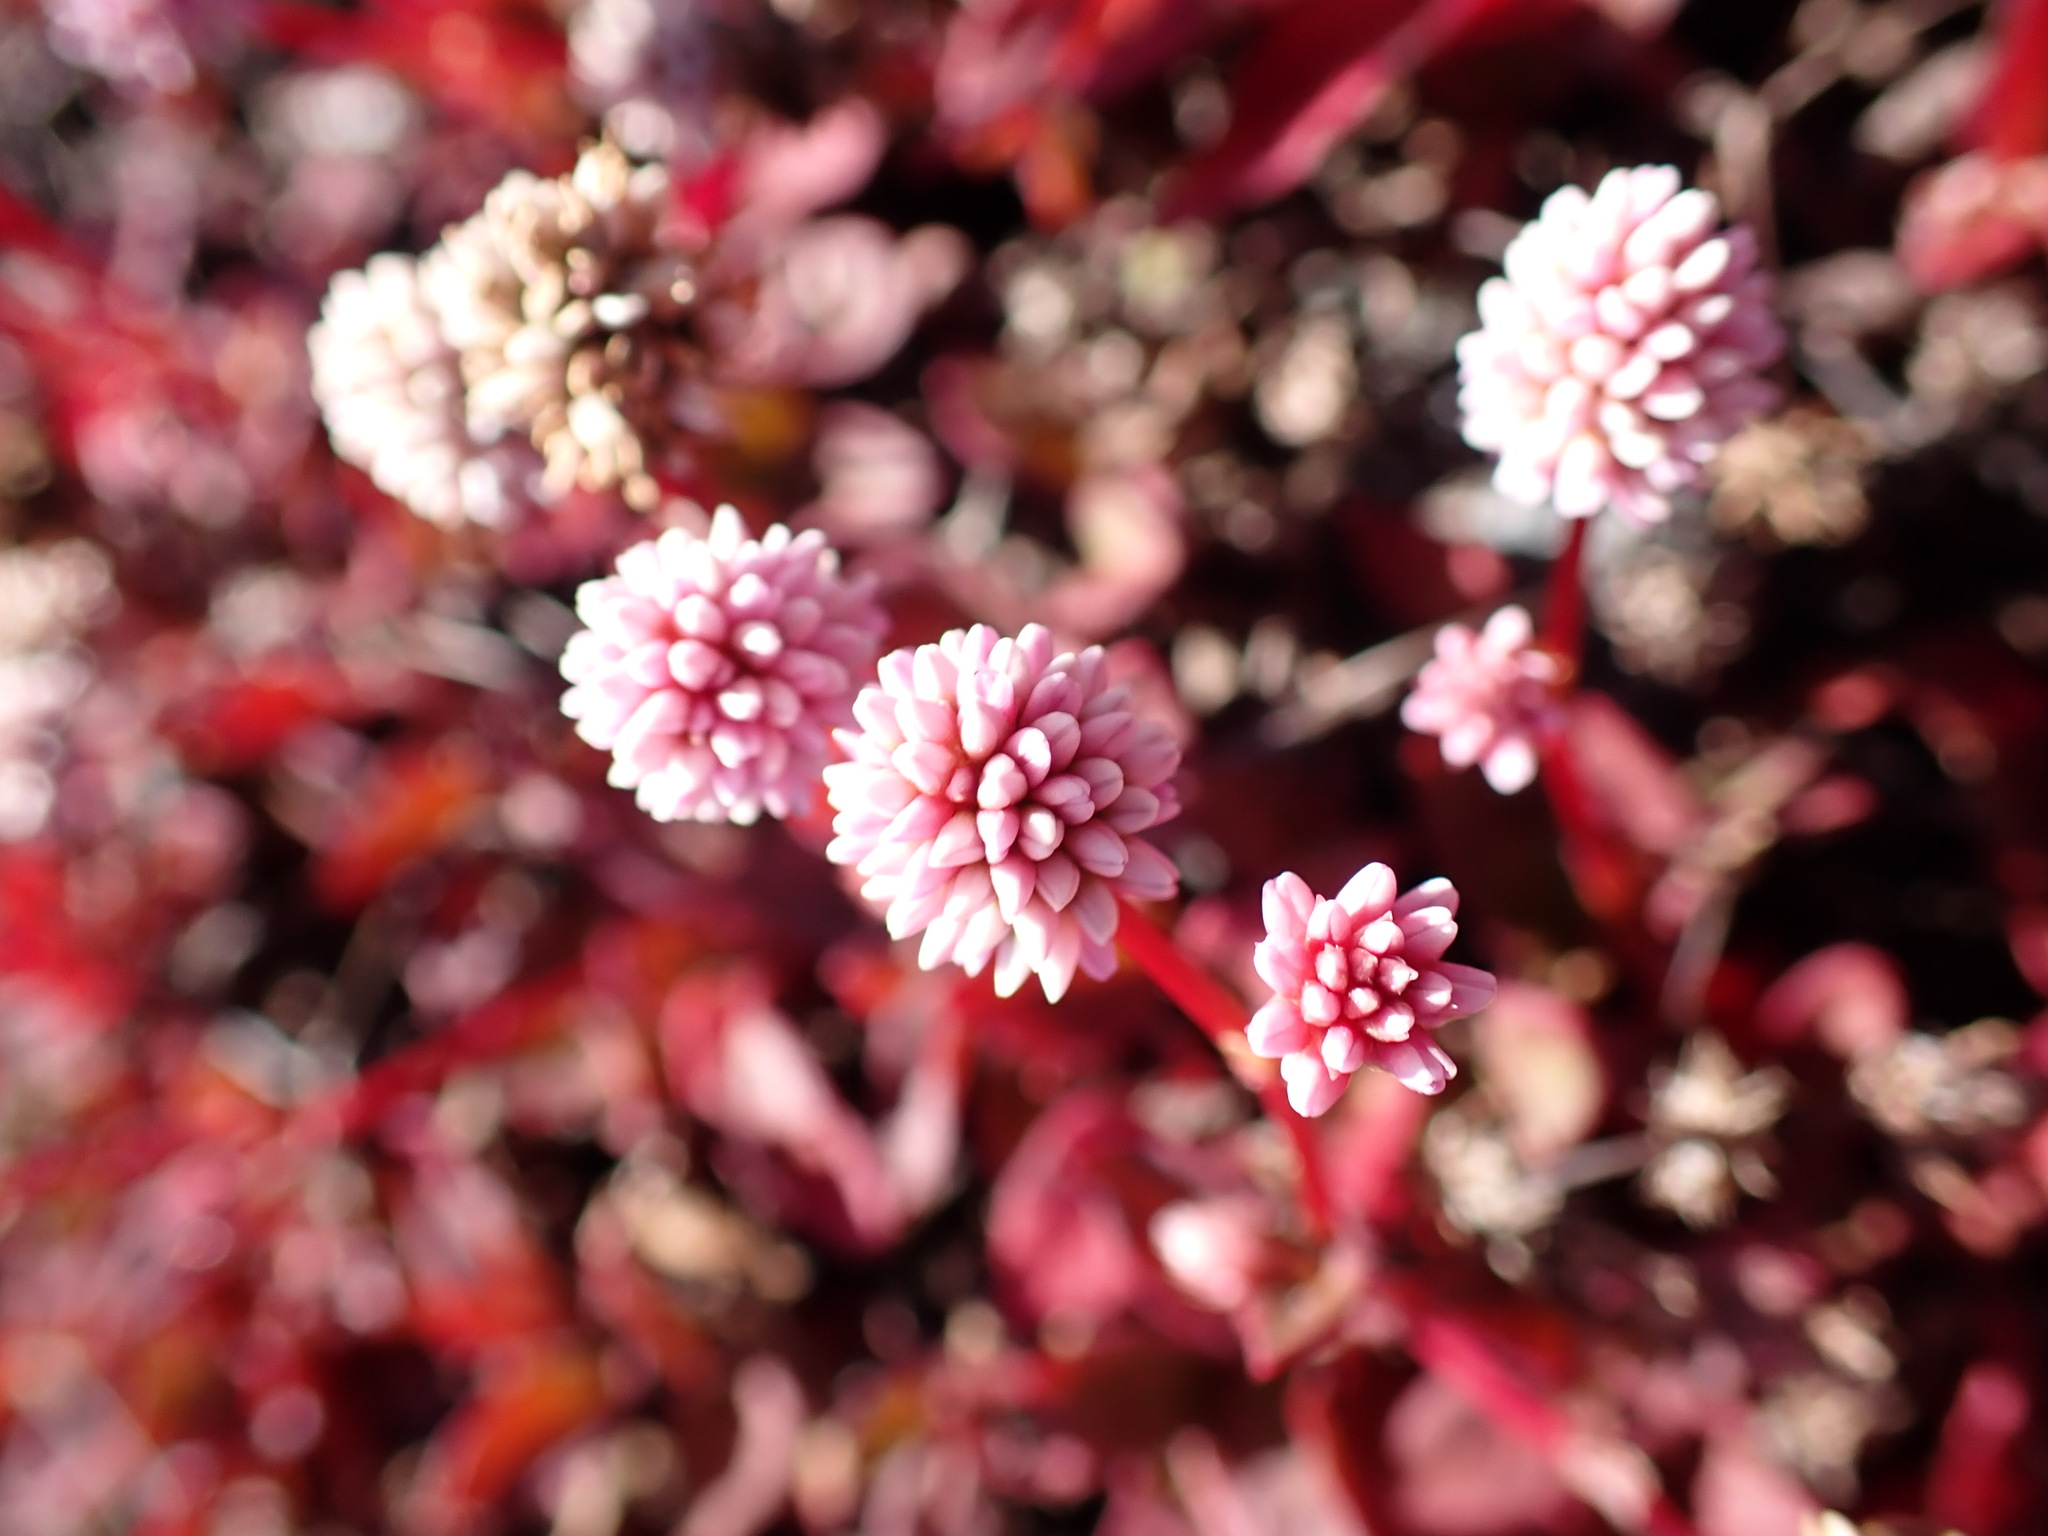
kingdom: Plantae
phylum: Tracheophyta
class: Magnoliopsida
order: Caryophyllales
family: Polygonaceae
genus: Persicaria
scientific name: Persicaria capitata
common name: Pinkhead smartweed
